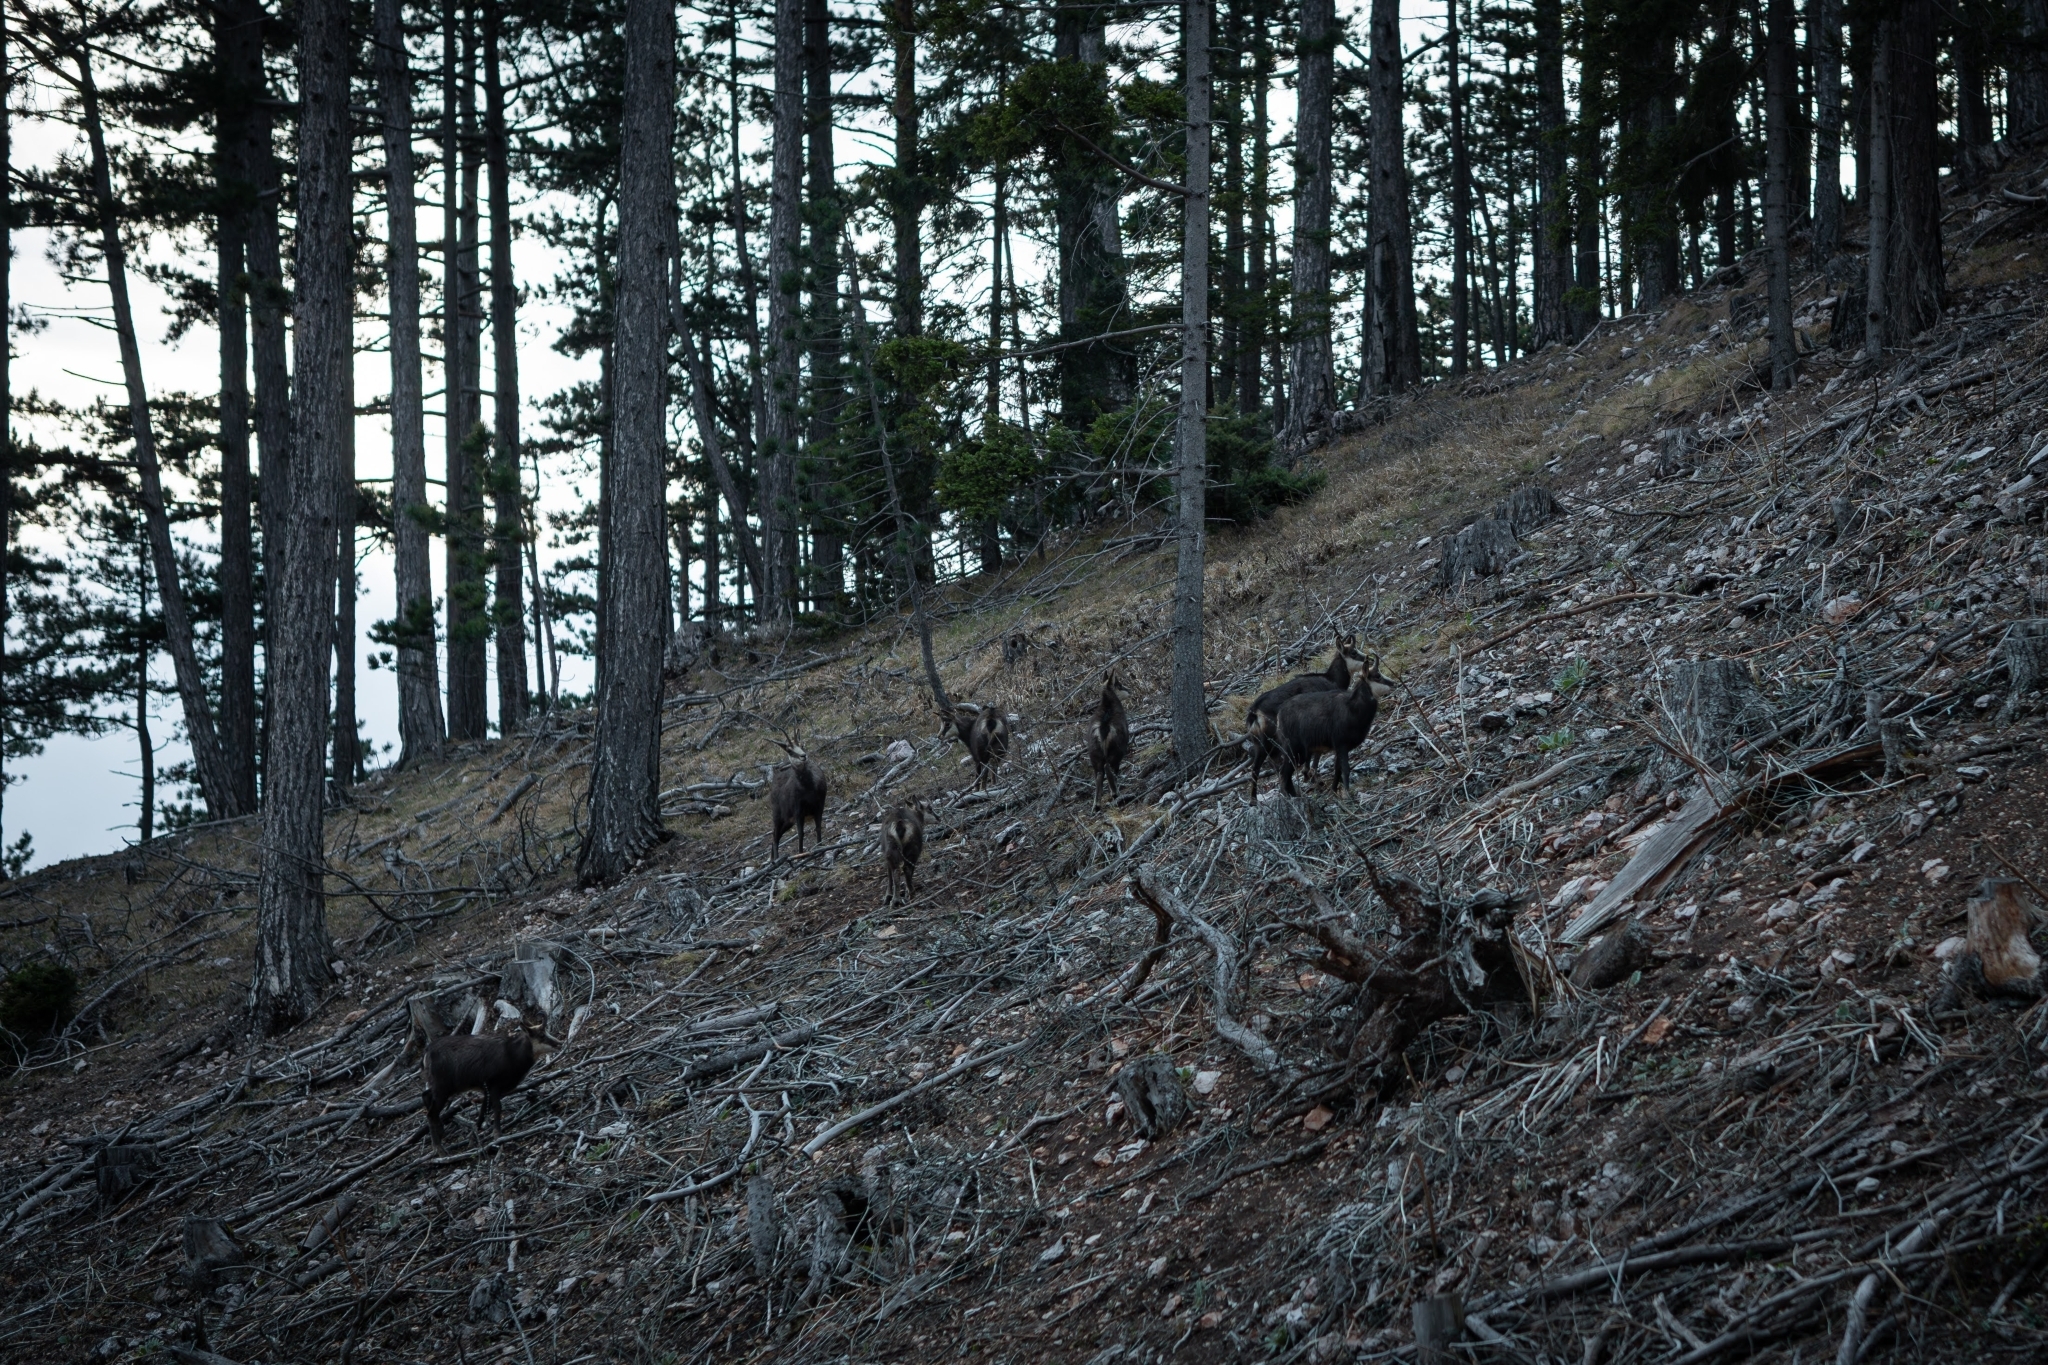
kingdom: Animalia
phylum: Chordata
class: Mammalia
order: Artiodactyla
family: Bovidae
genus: Rupicapra
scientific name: Rupicapra rupicapra
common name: Chamois
